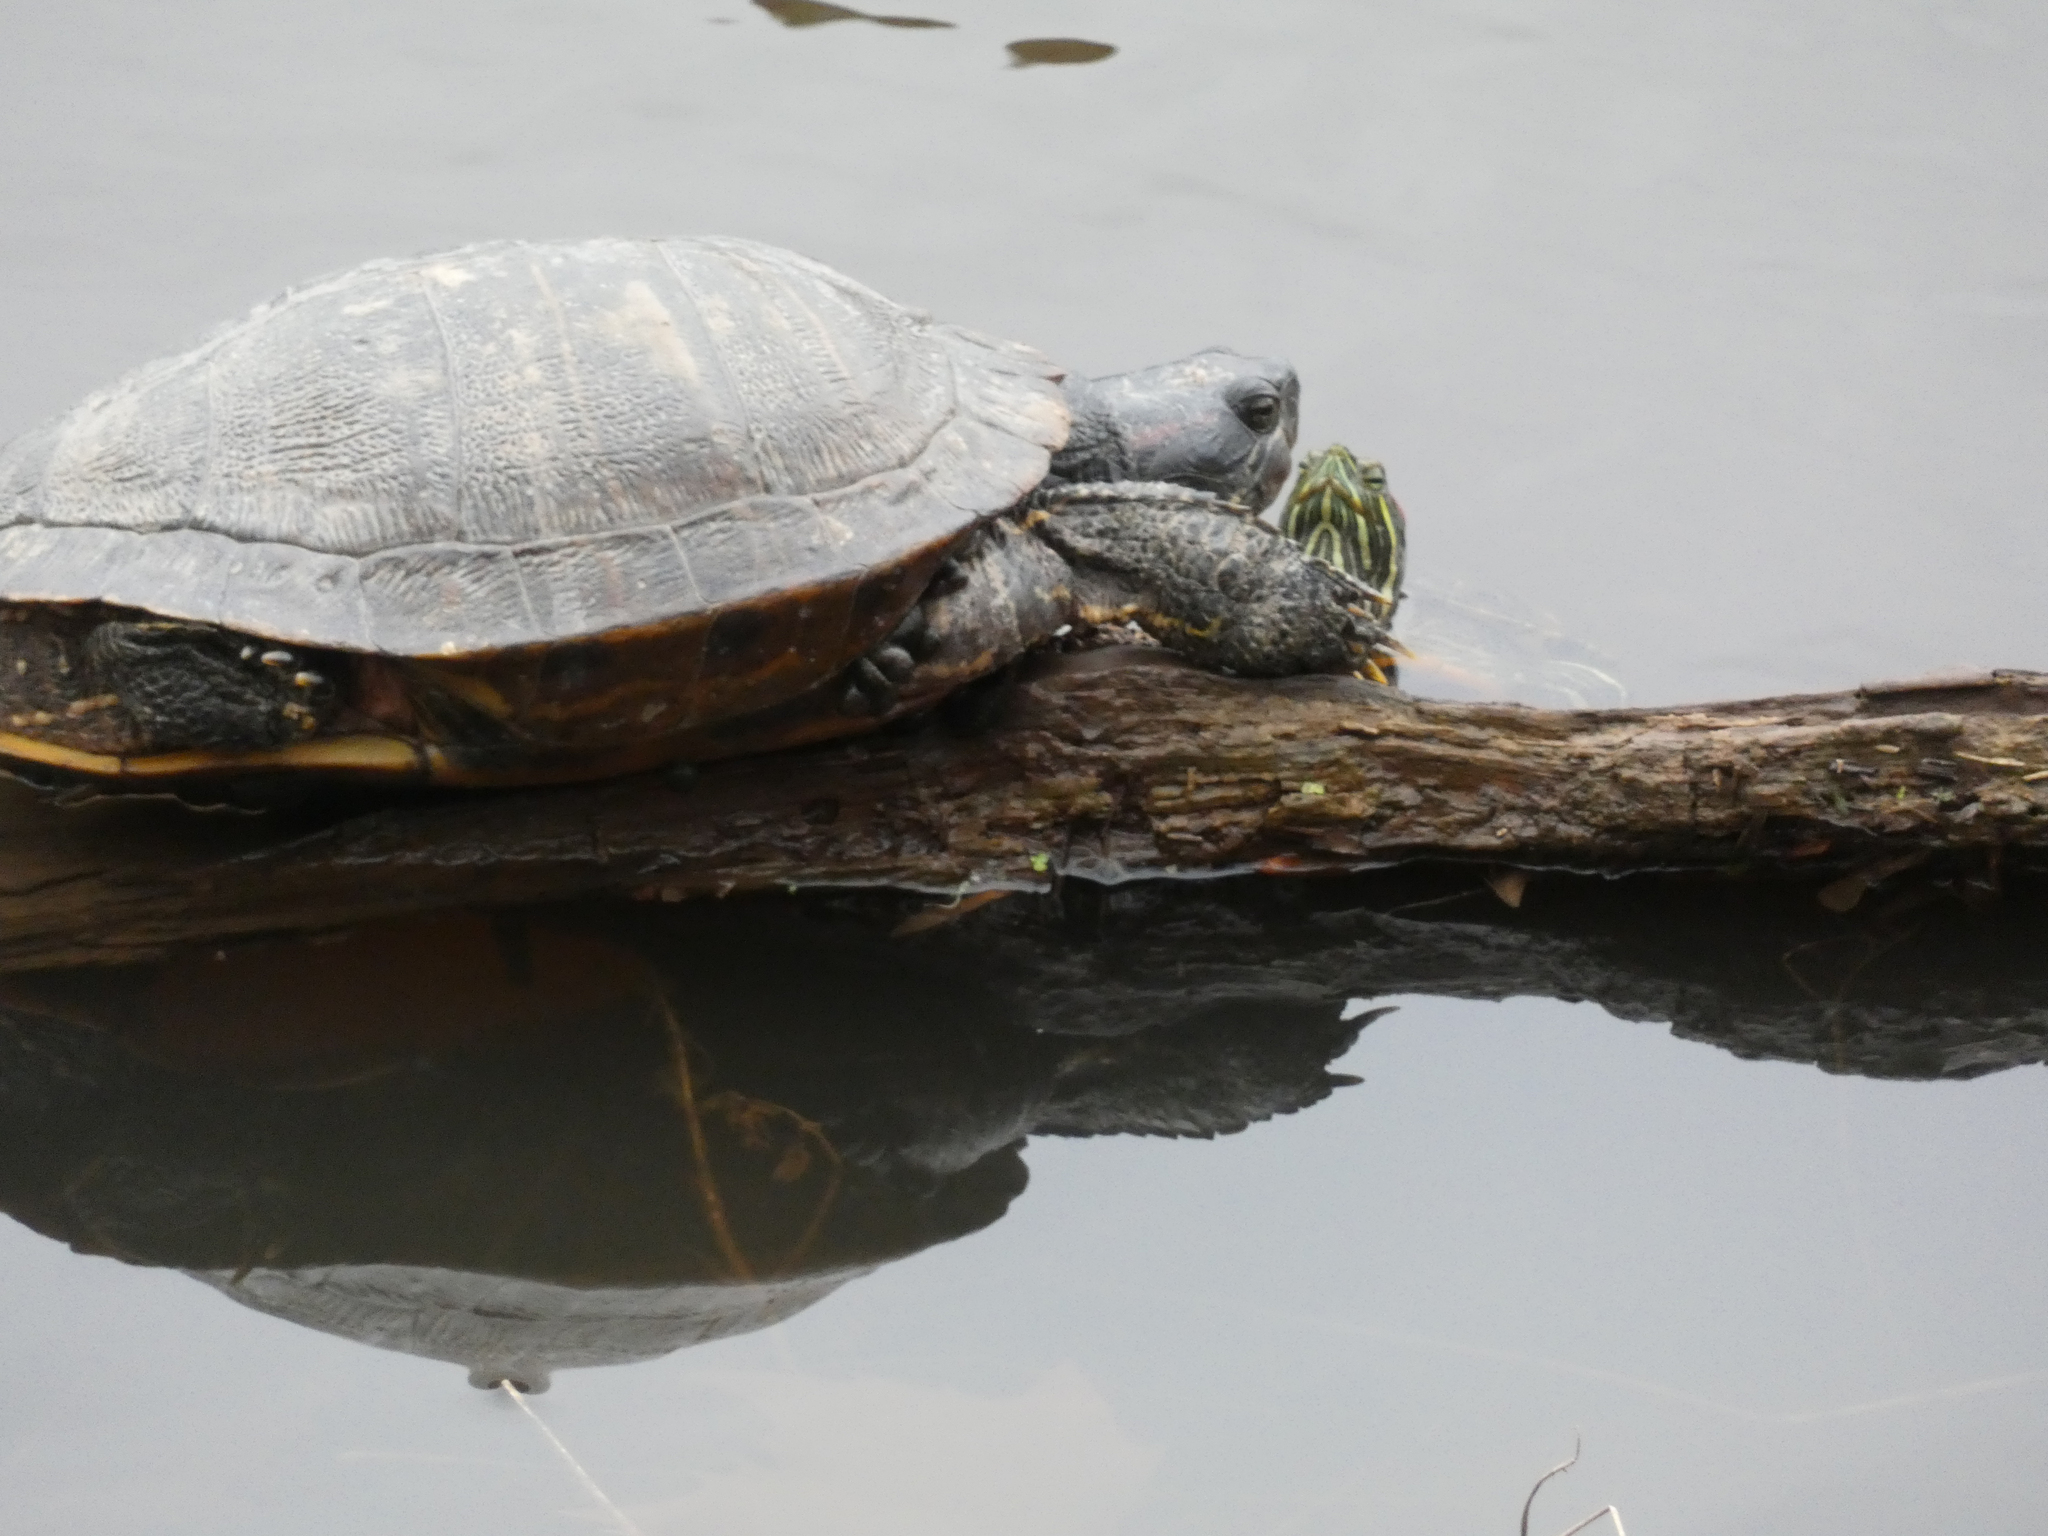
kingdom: Animalia
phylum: Chordata
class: Testudines
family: Emydidae
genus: Trachemys
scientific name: Trachemys scripta
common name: Slider
